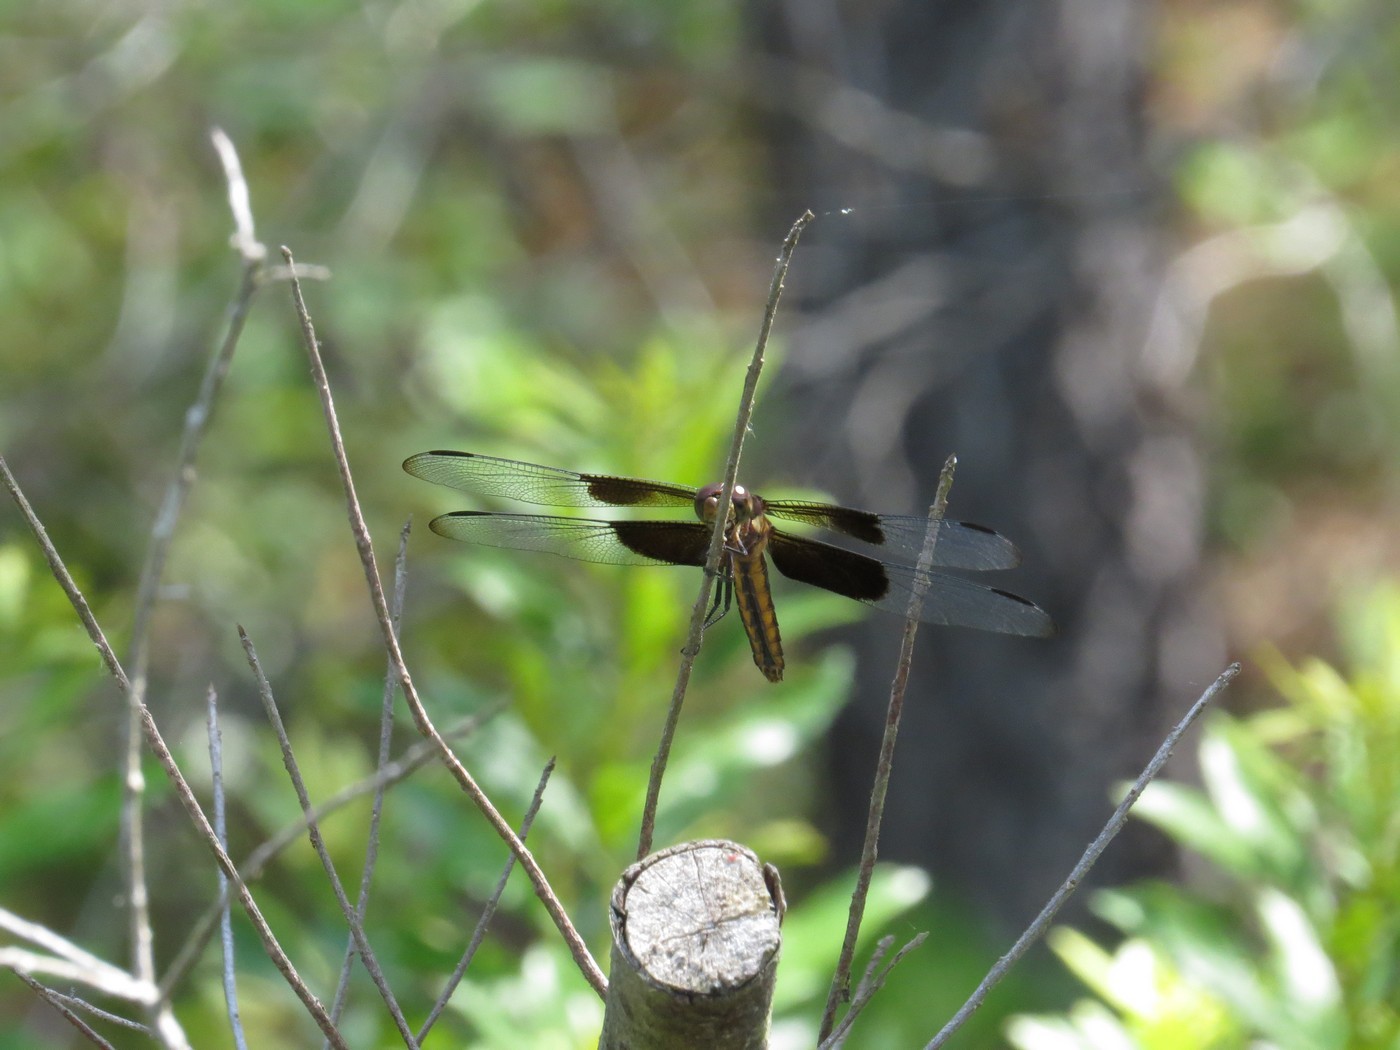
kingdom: Animalia
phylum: Arthropoda
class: Insecta
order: Odonata
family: Libellulidae
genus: Libellula
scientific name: Libellula luctuosa
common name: Widow skimmer
